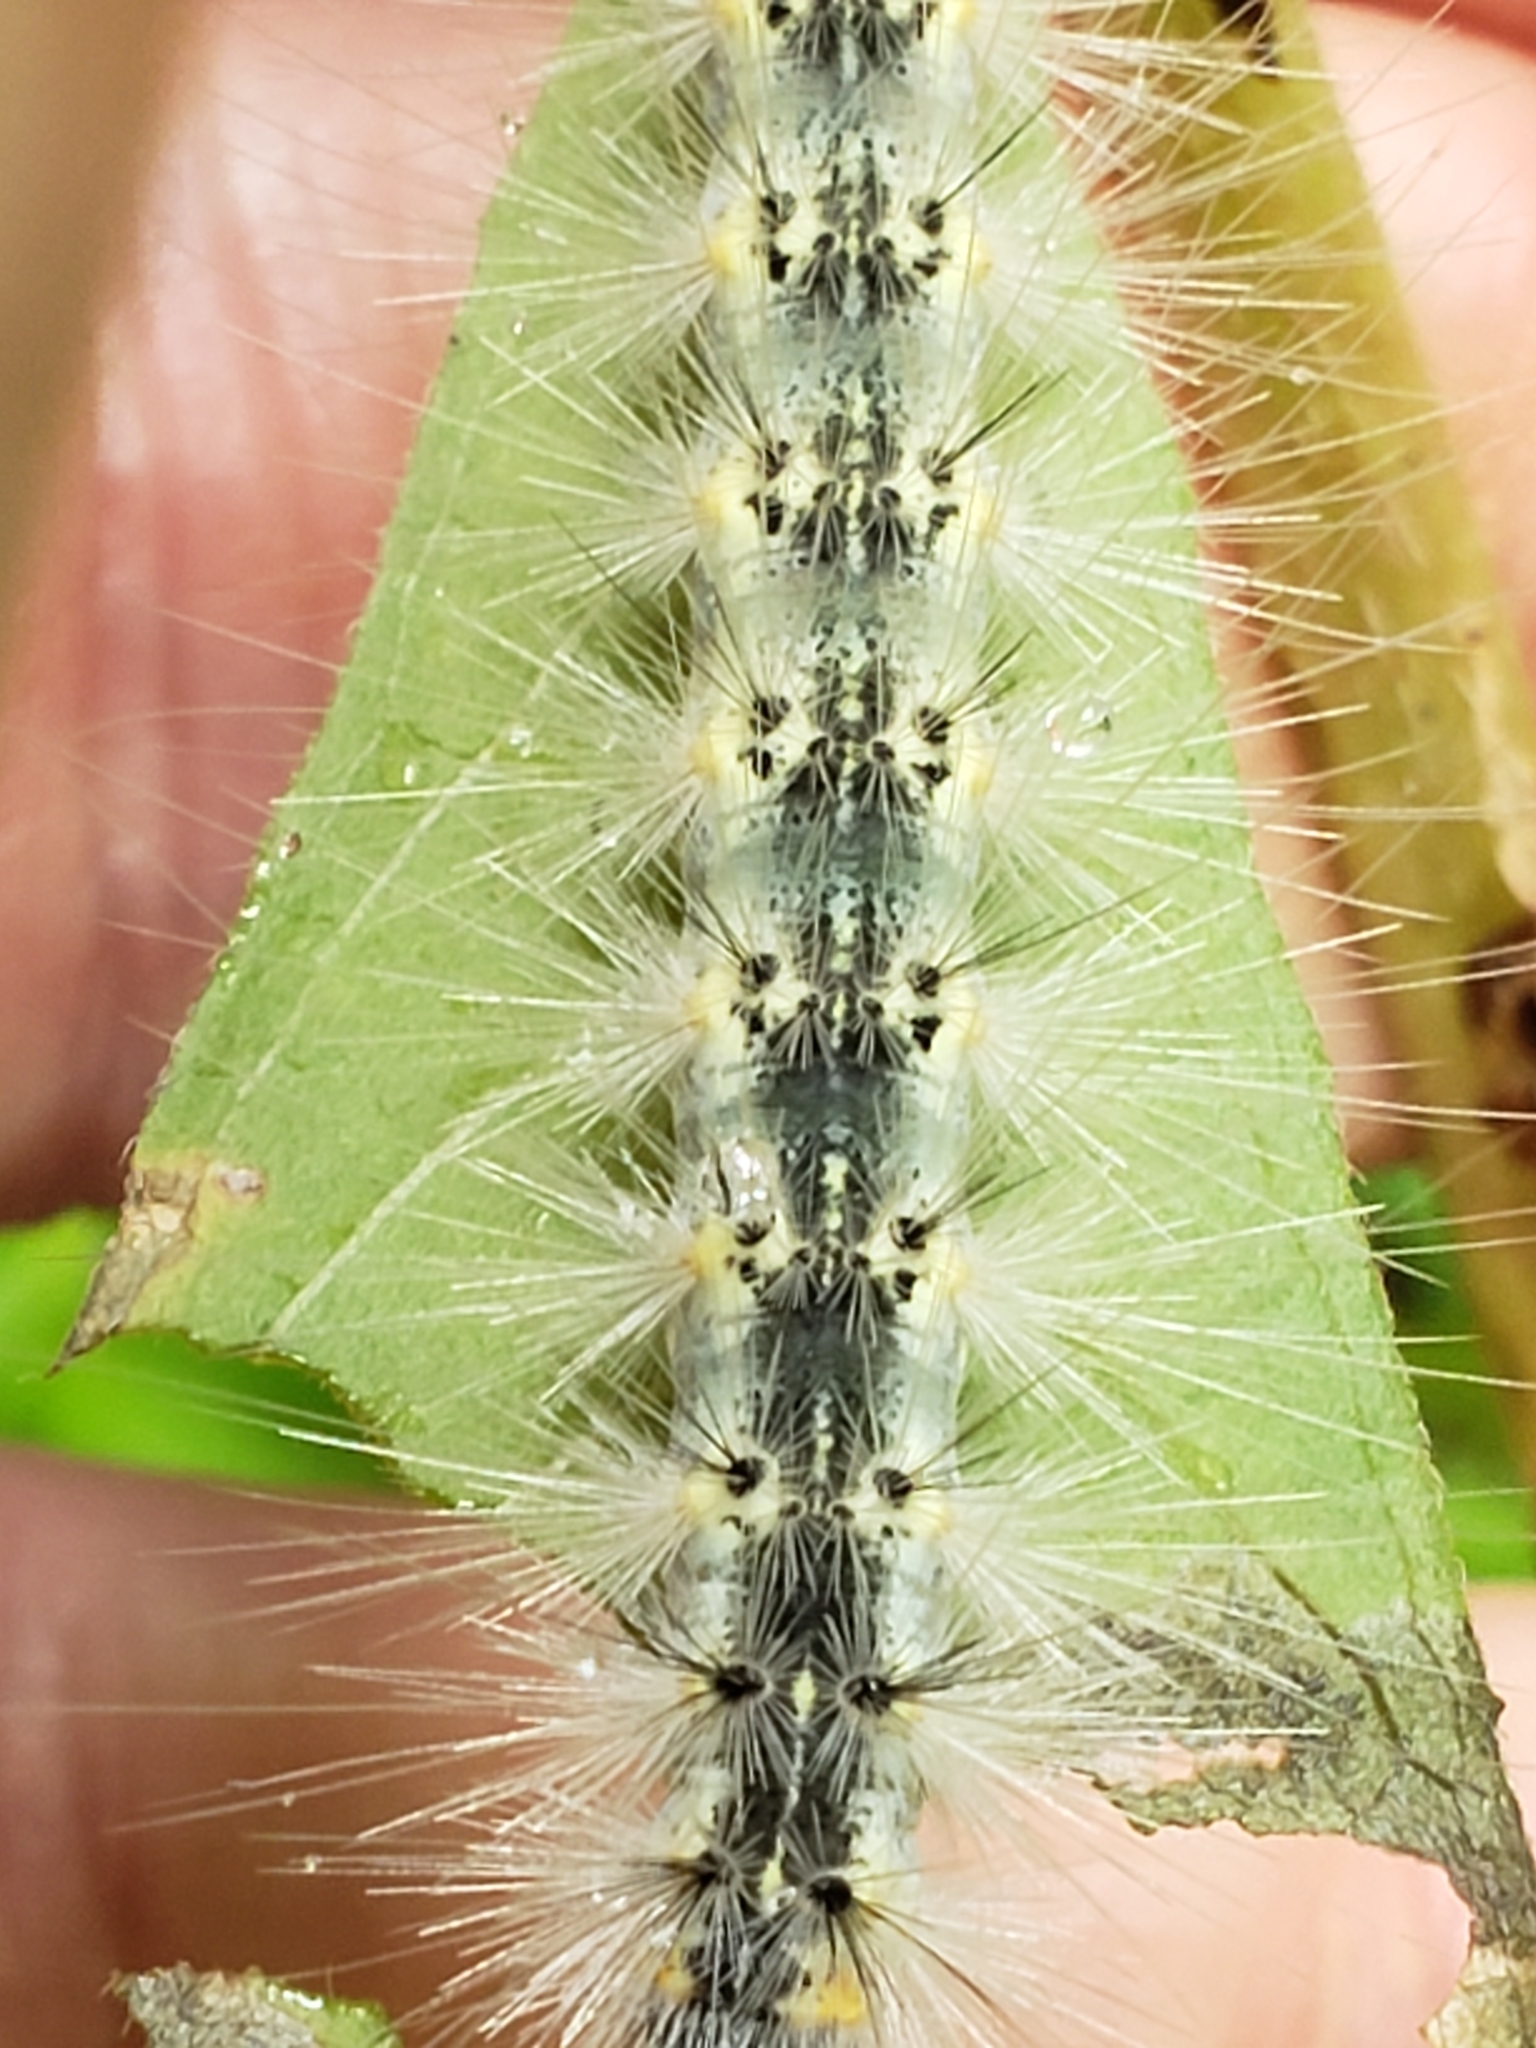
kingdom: Animalia
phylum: Arthropoda
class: Insecta
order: Lepidoptera
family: Erebidae
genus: Hyphantria
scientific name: Hyphantria cunea
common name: American white moth
